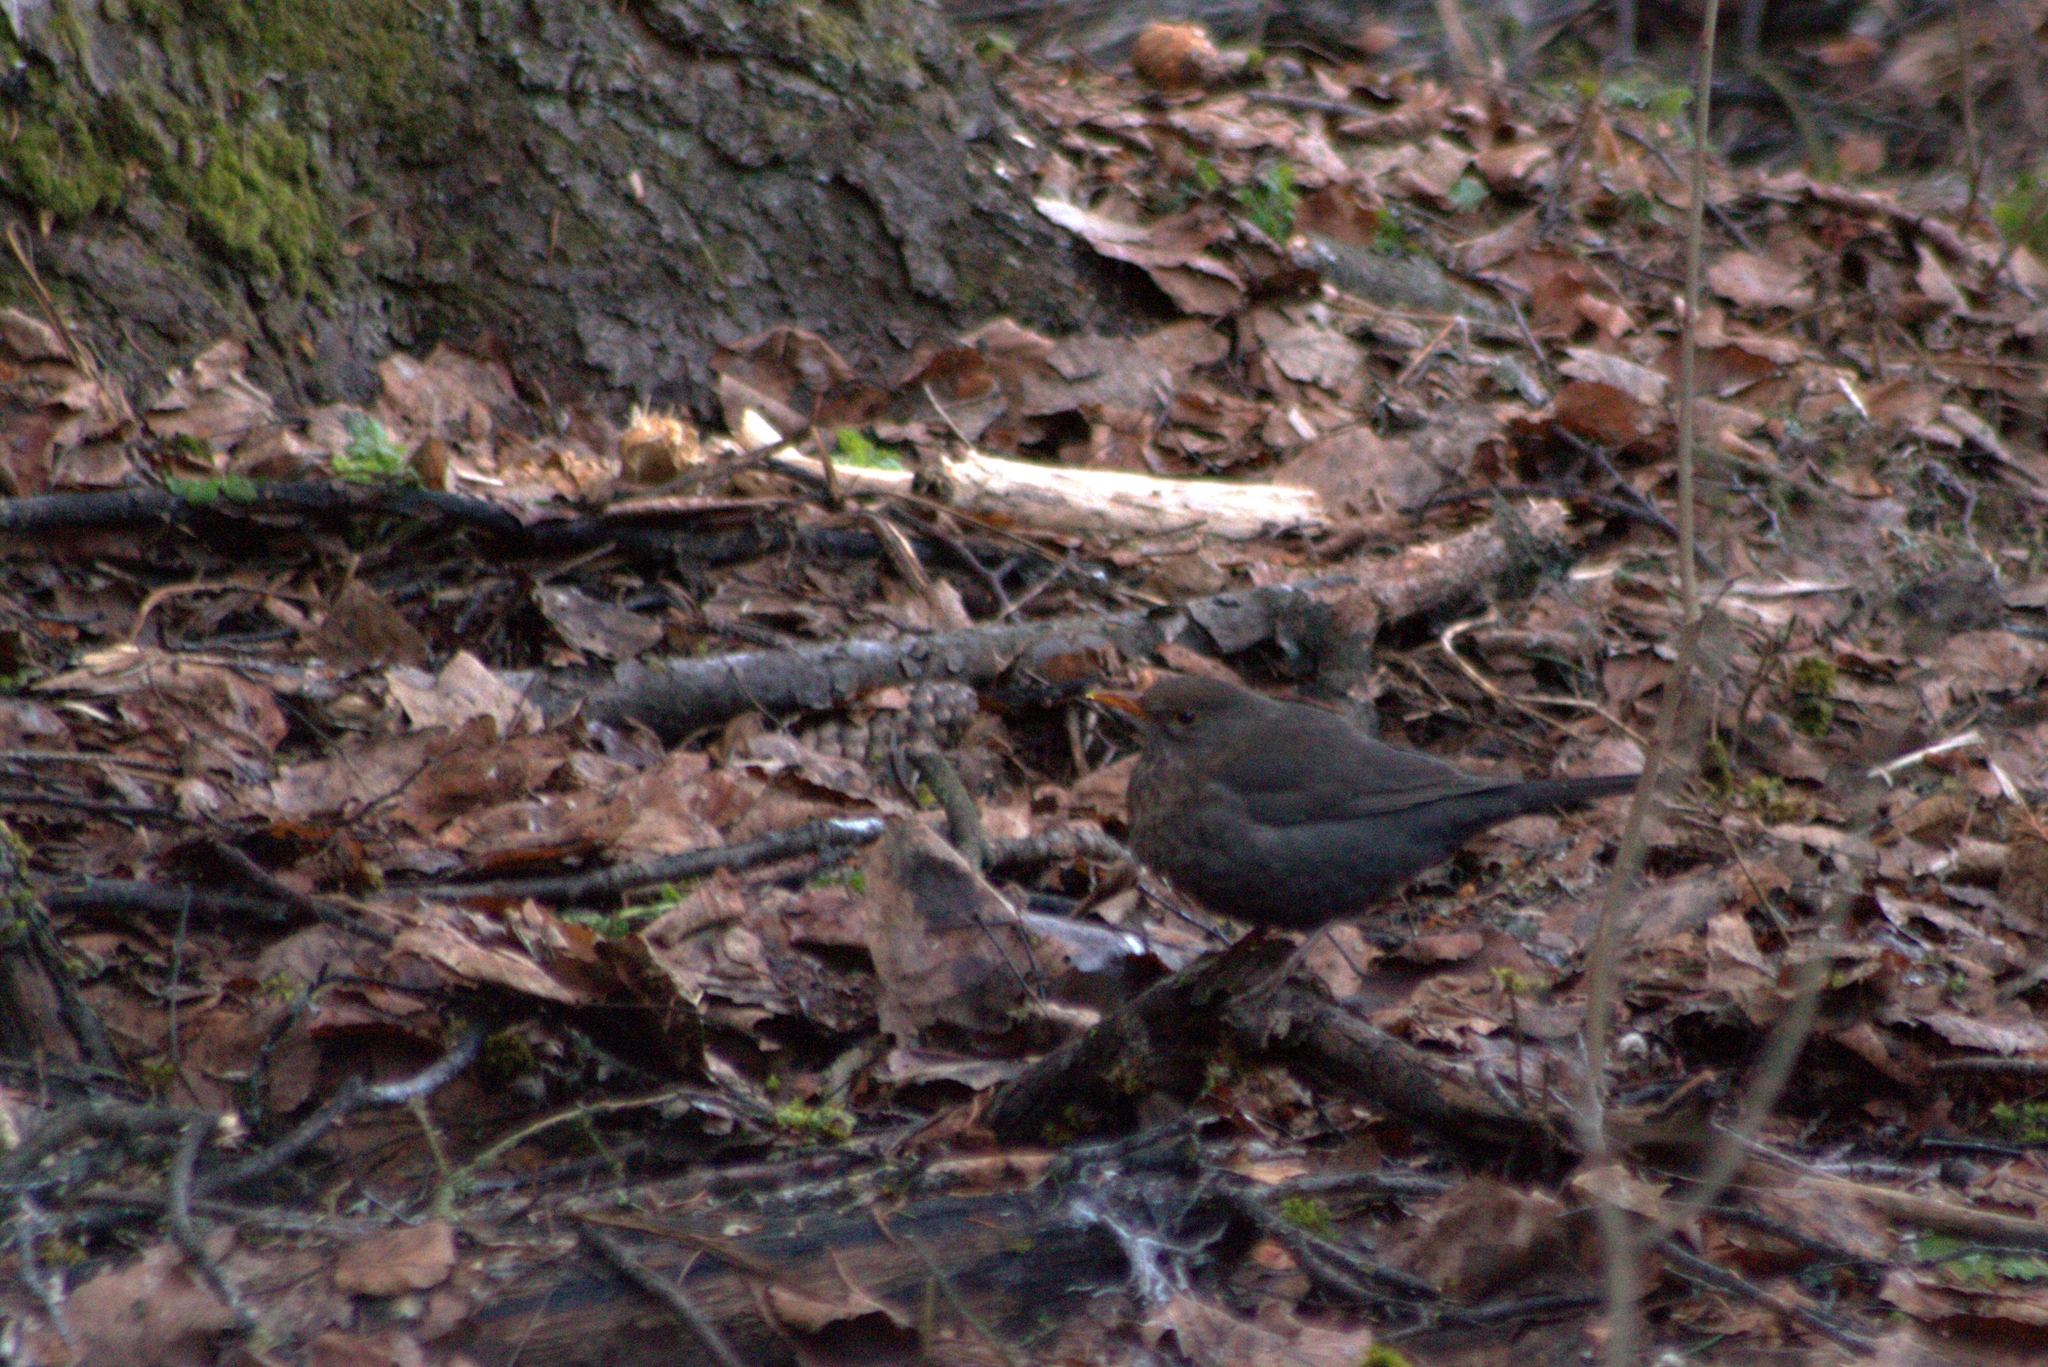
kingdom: Animalia
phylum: Chordata
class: Aves
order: Passeriformes
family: Turdidae
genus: Turdus
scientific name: Turdus merula
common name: Common blackbird
